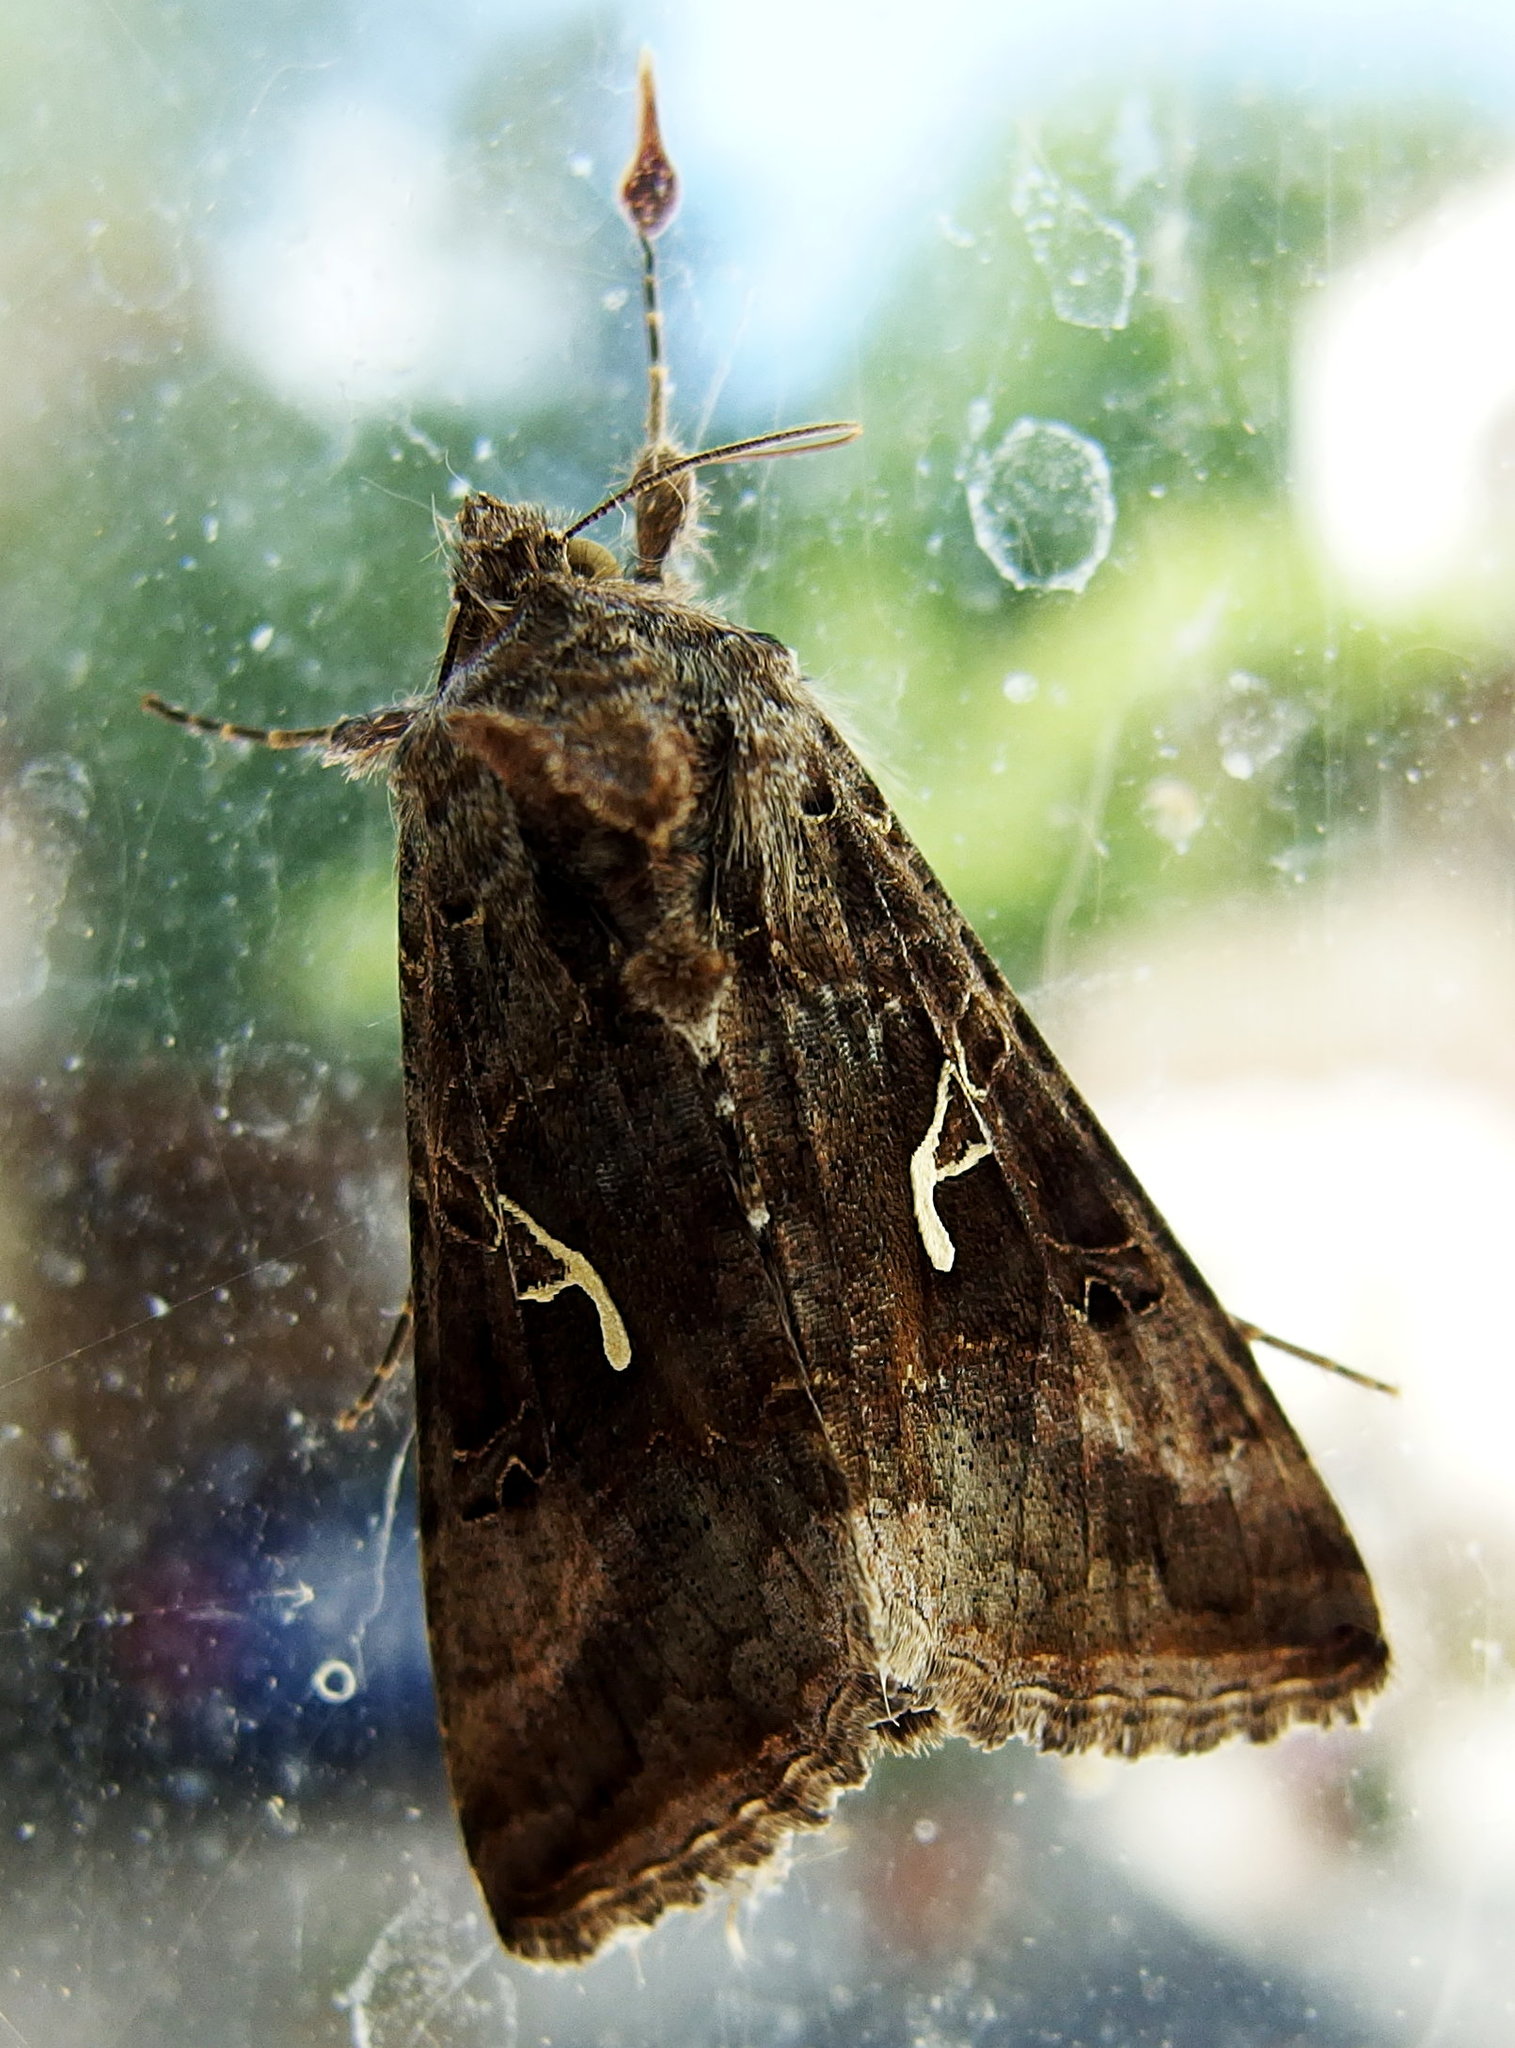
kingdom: Animalia
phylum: Arthropoda
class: Insecta
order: Lepidoptera
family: Noctuidae
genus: Autographa
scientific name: Autographa gamma
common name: Silver y
